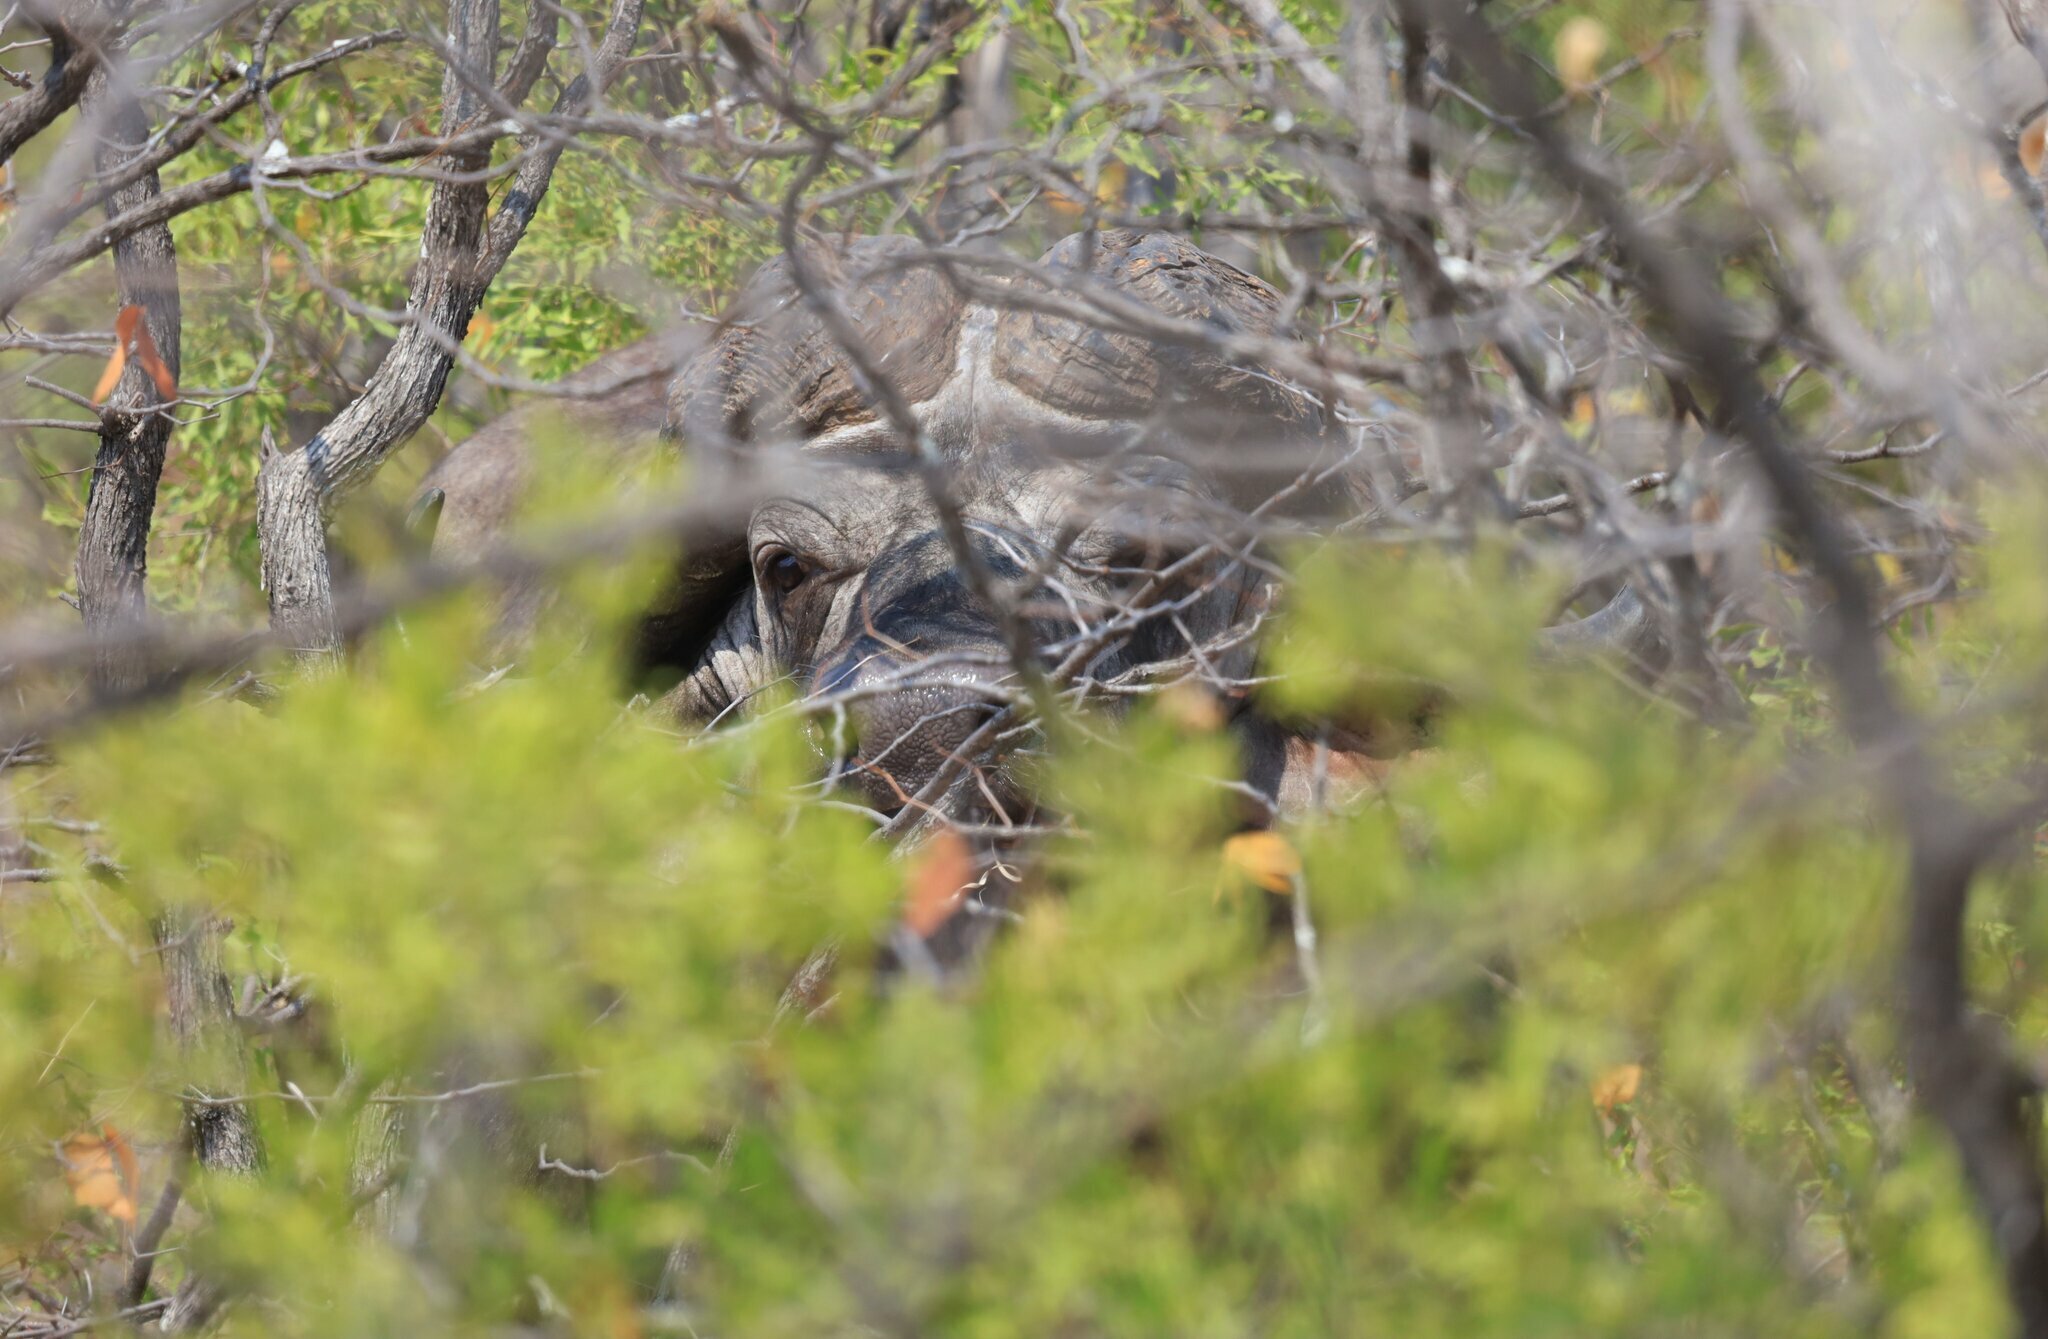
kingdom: Animalia
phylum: Chordata
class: Mammalia
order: Artiodactyla
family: Bovidae
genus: Syncerus
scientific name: Syncerus caffer
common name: African buffalo
